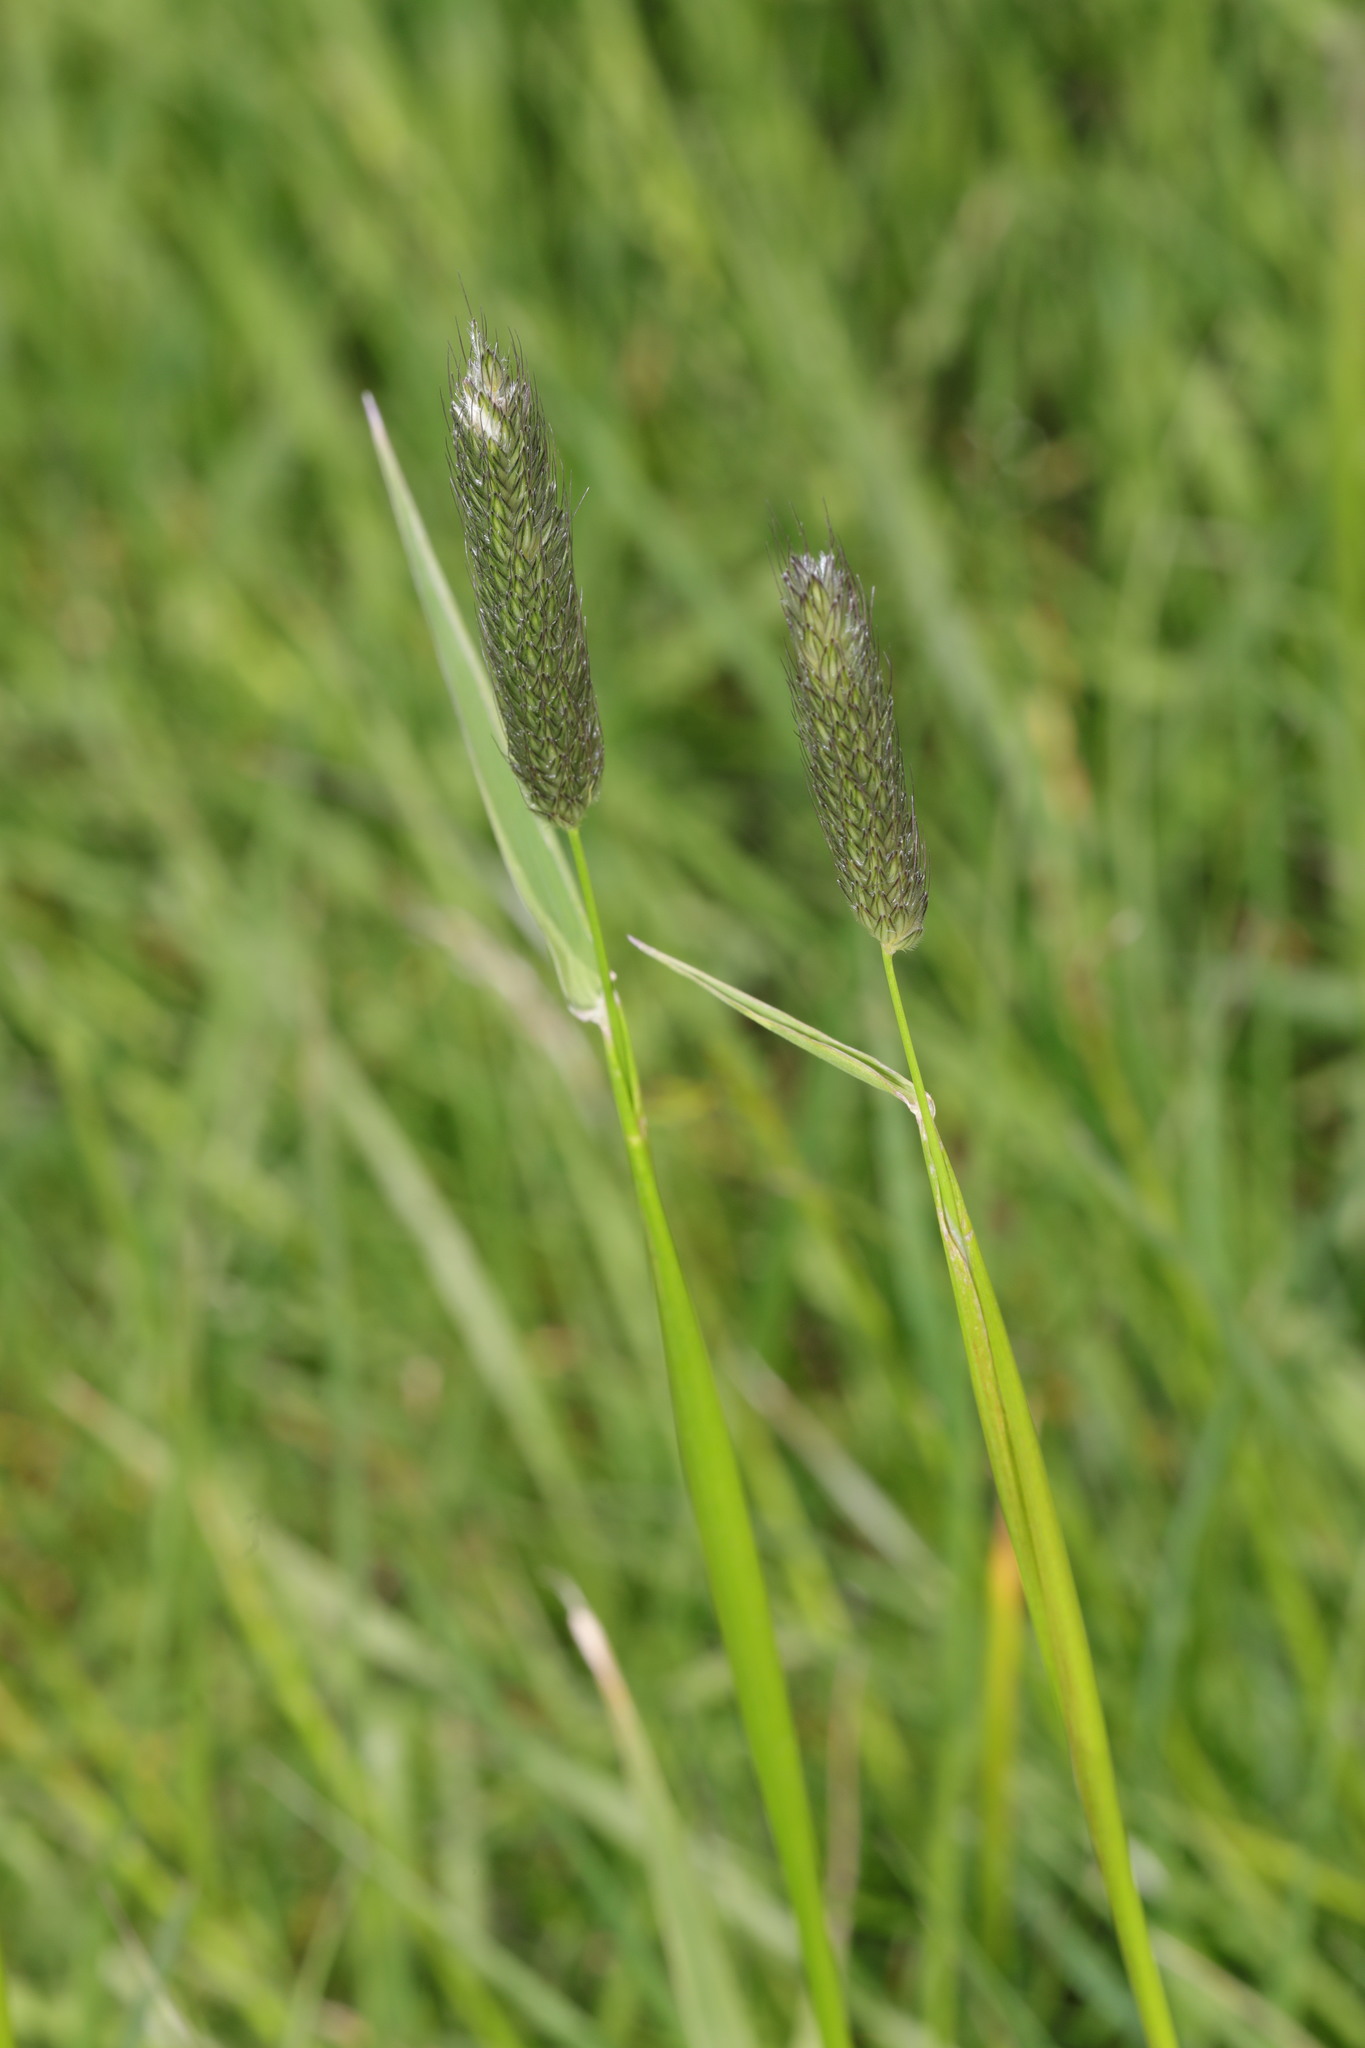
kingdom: Plantae
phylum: Tracheophyta
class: Liliopsida
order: Poales
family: Poaceae
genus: Alopecurus
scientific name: Alopecurus pratensis
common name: Meadow foxtail
